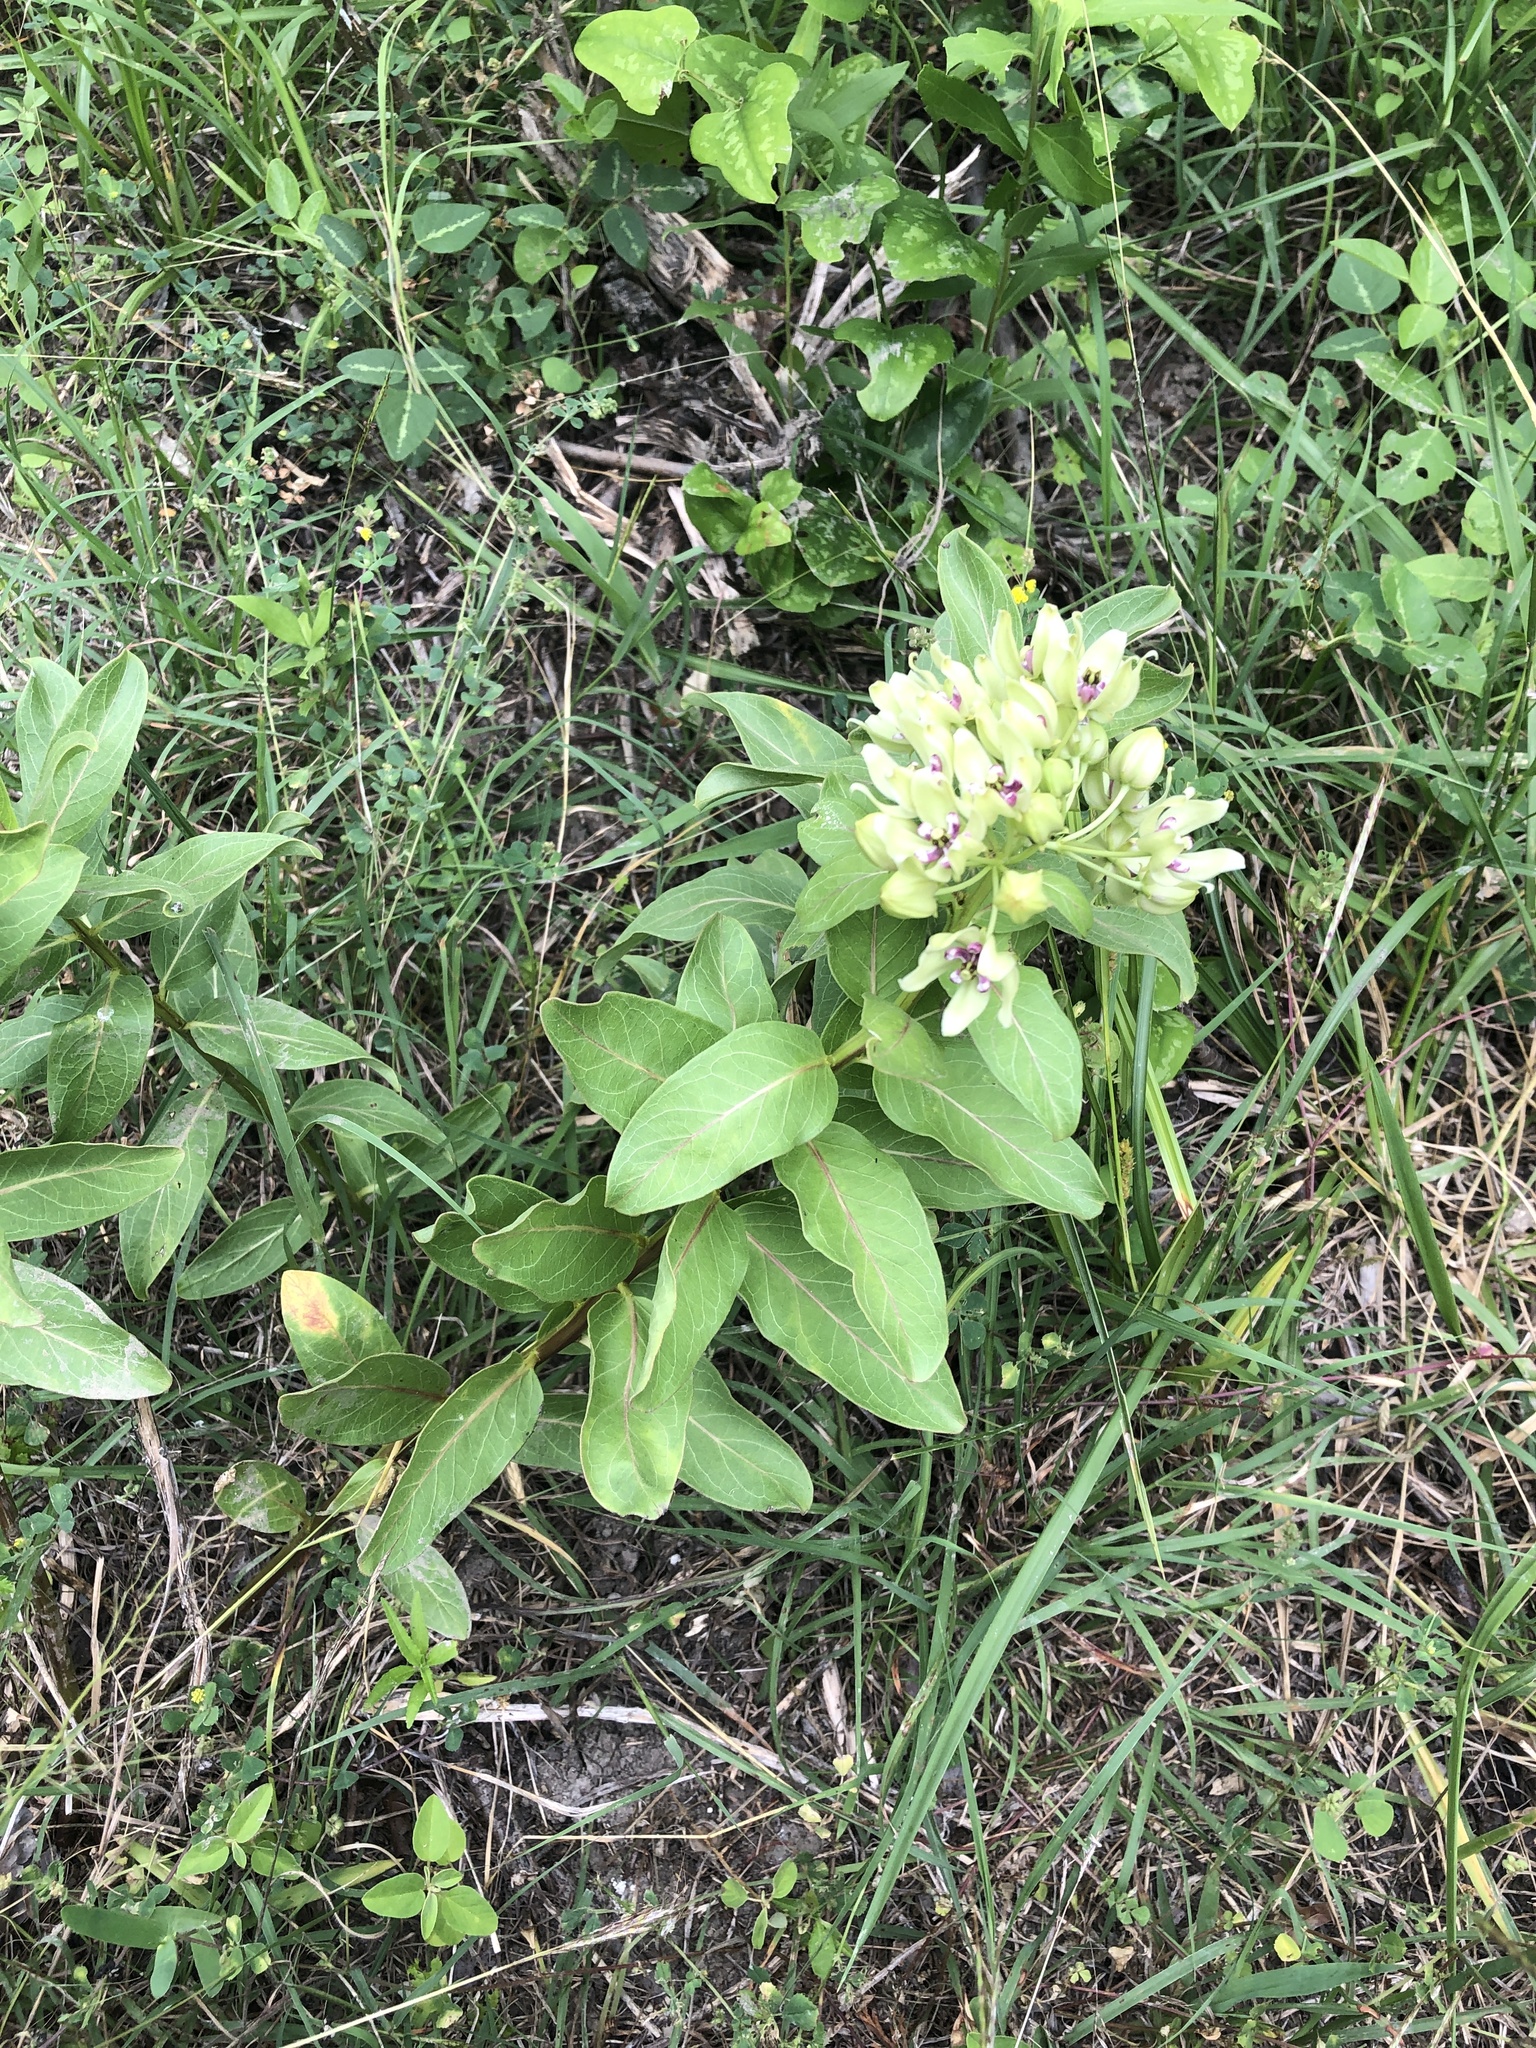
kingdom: Plantae
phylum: Tracheophyta
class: Magnoliopsida
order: Gentianales
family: Apocynaceae
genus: Asclepias
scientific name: Asclepias viridis
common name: Antelope-horns
